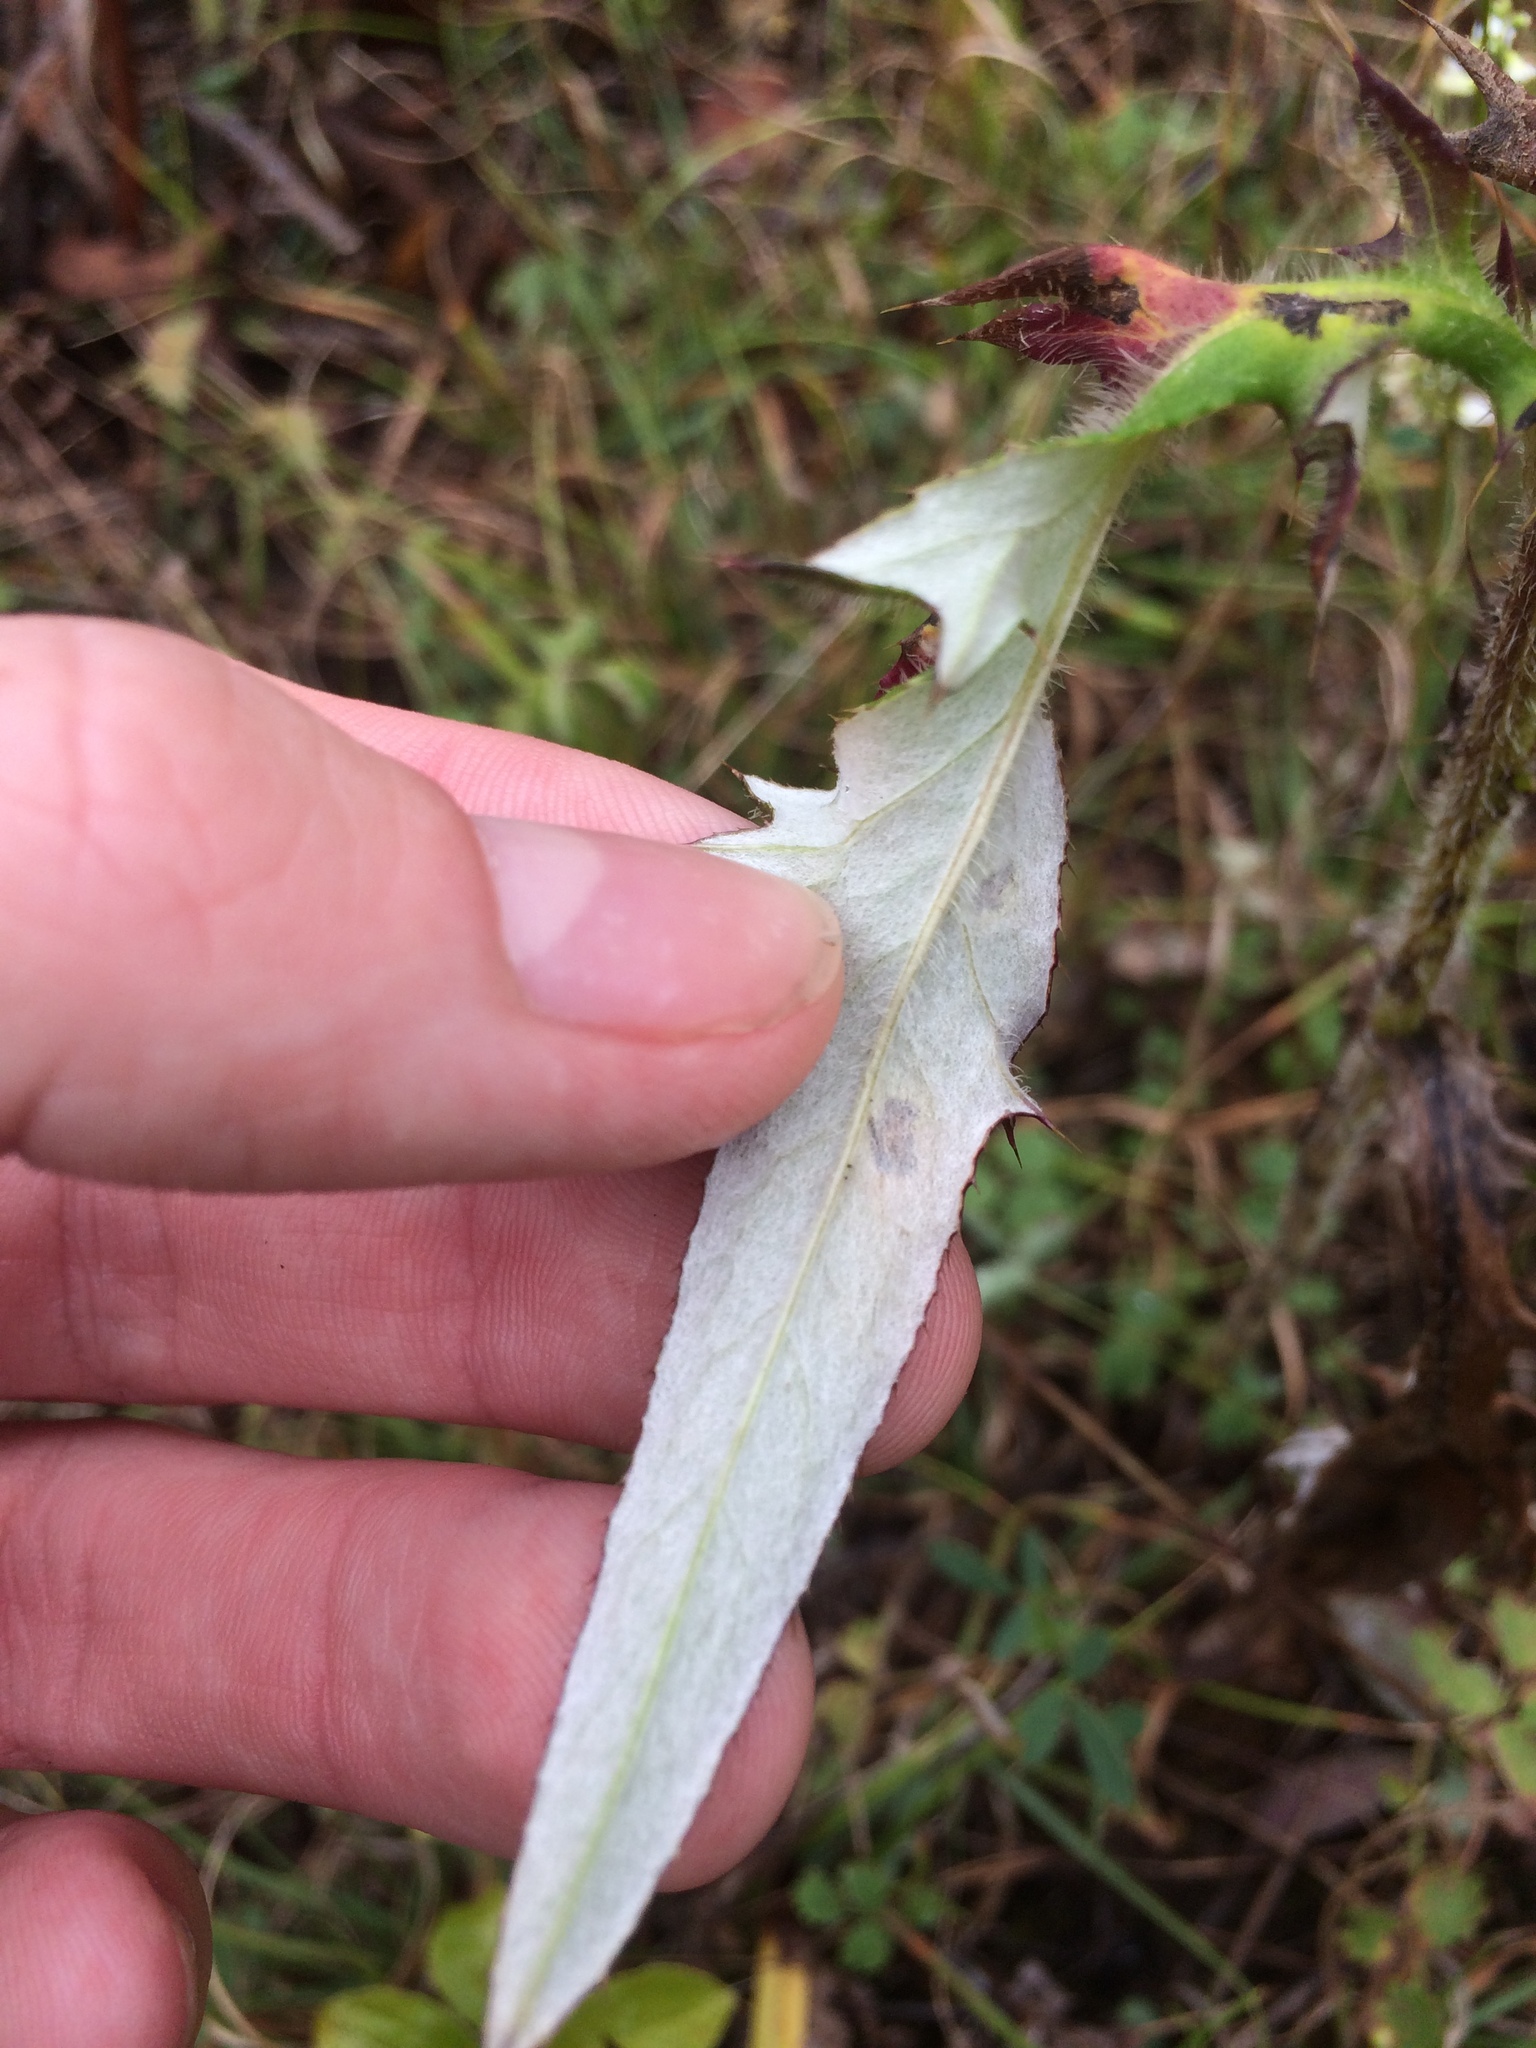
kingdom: Plantae
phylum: Tracheophyta
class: Magnoliopsida
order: Asterales
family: Asteraceae
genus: Cirsium
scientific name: Cirsium discolor
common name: Field thistle
